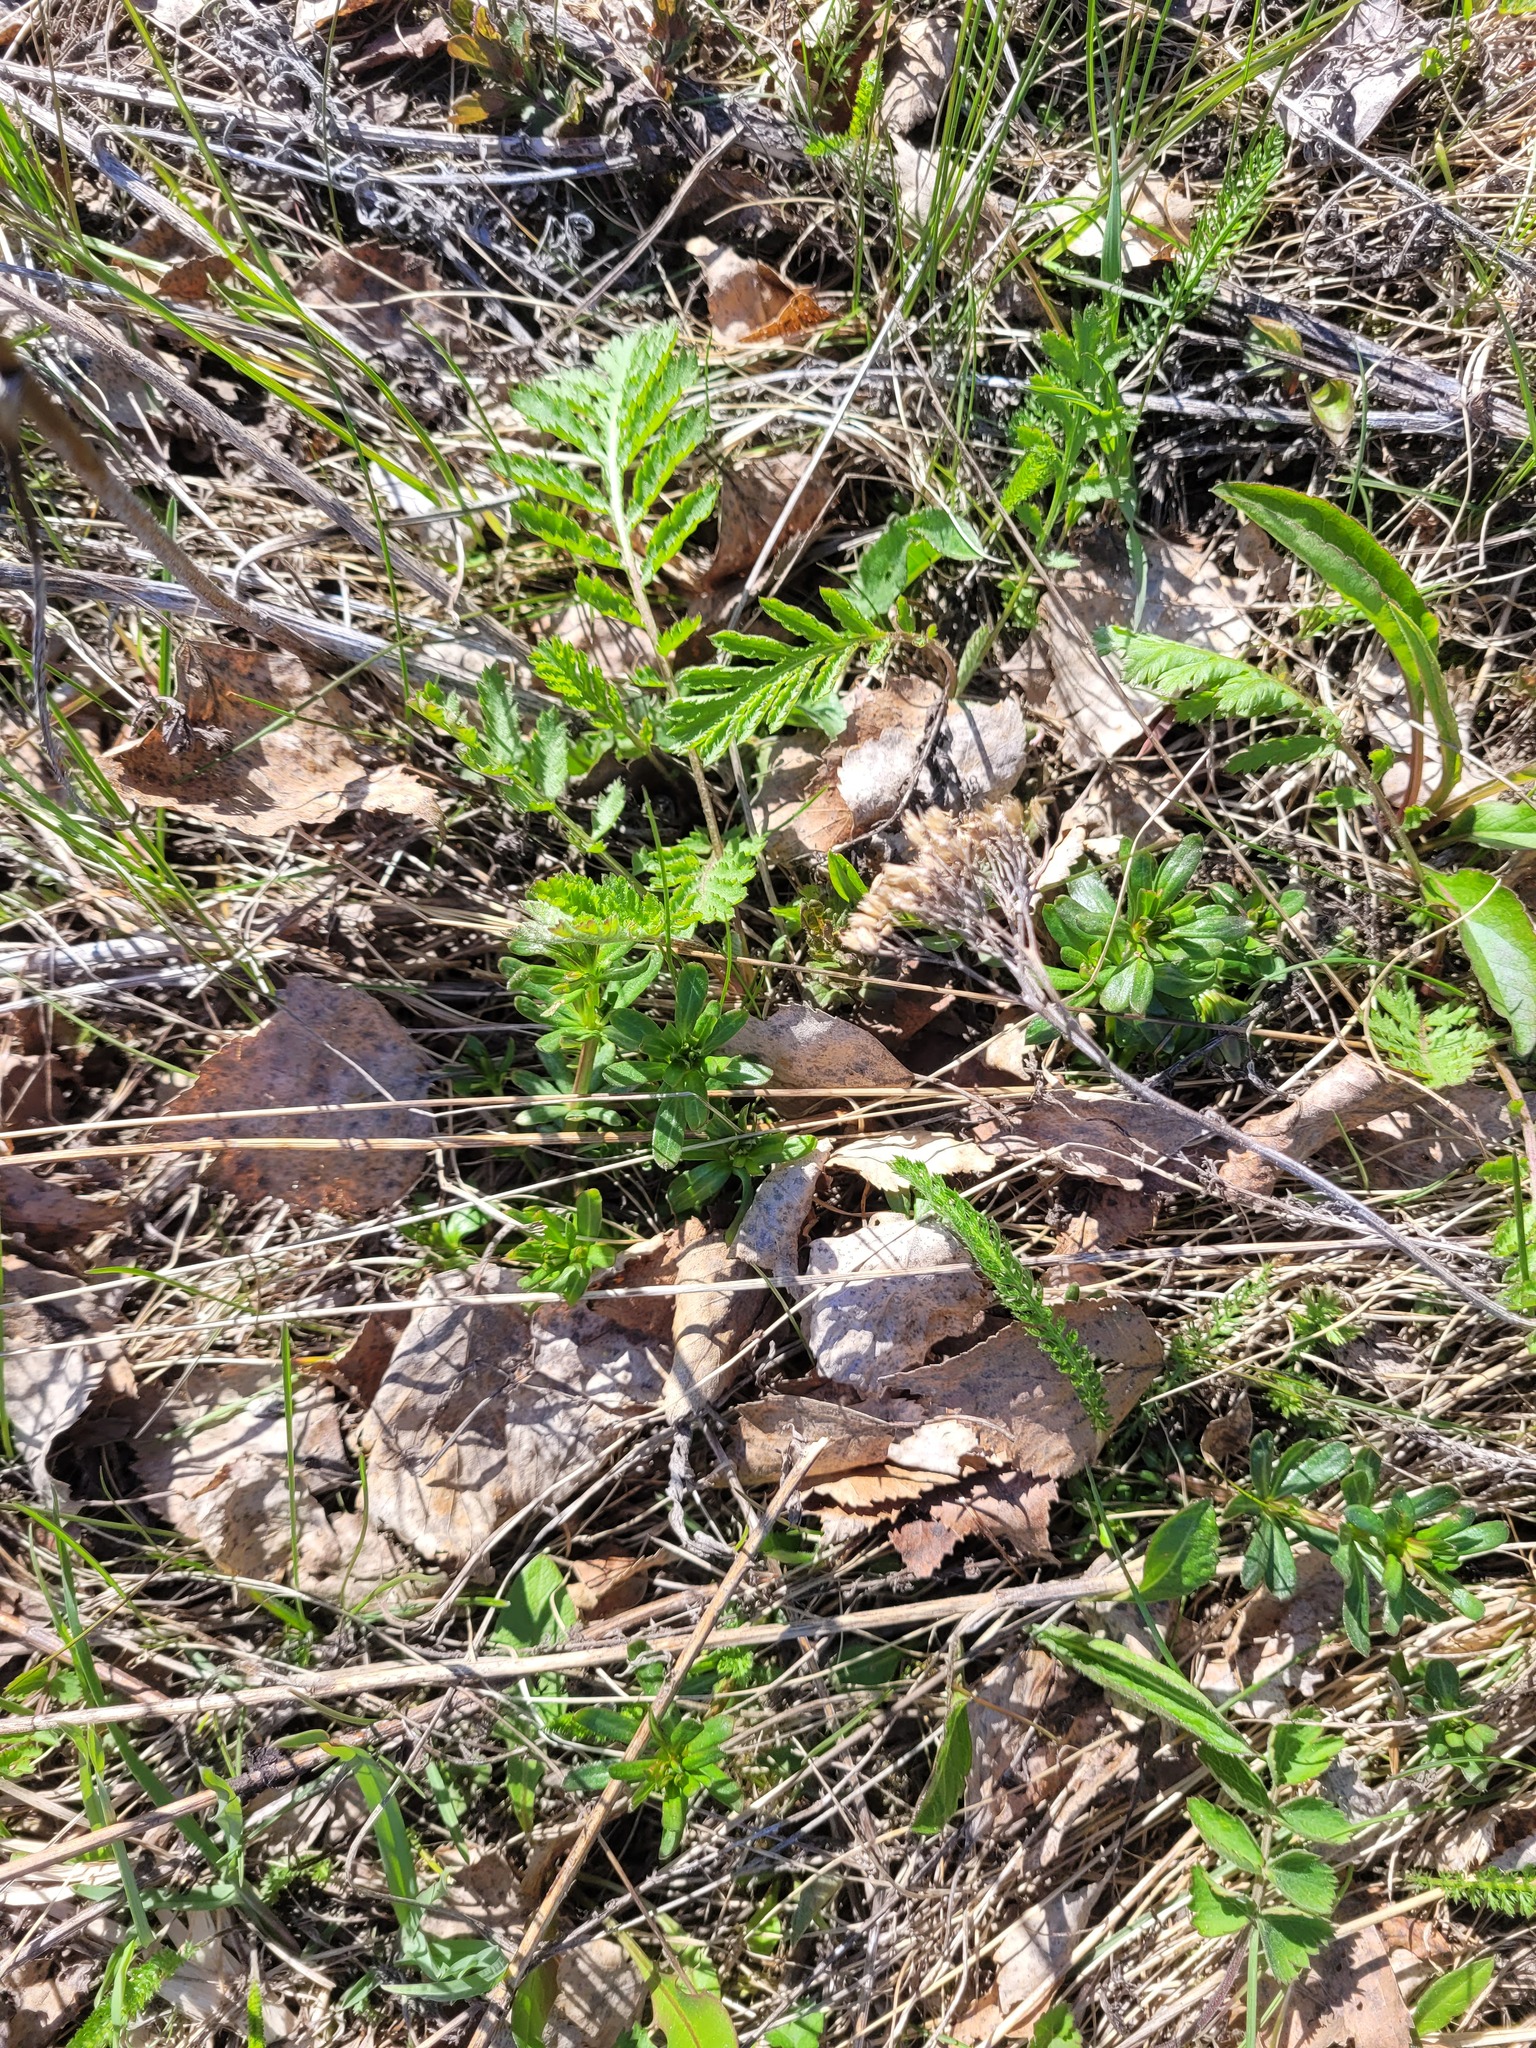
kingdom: Plantae
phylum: Tracheophyta
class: Magnoliopsida
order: Gentianales
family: Rubiaceae
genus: Galium
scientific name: Galium mollugo
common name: Hedge bedstraw
